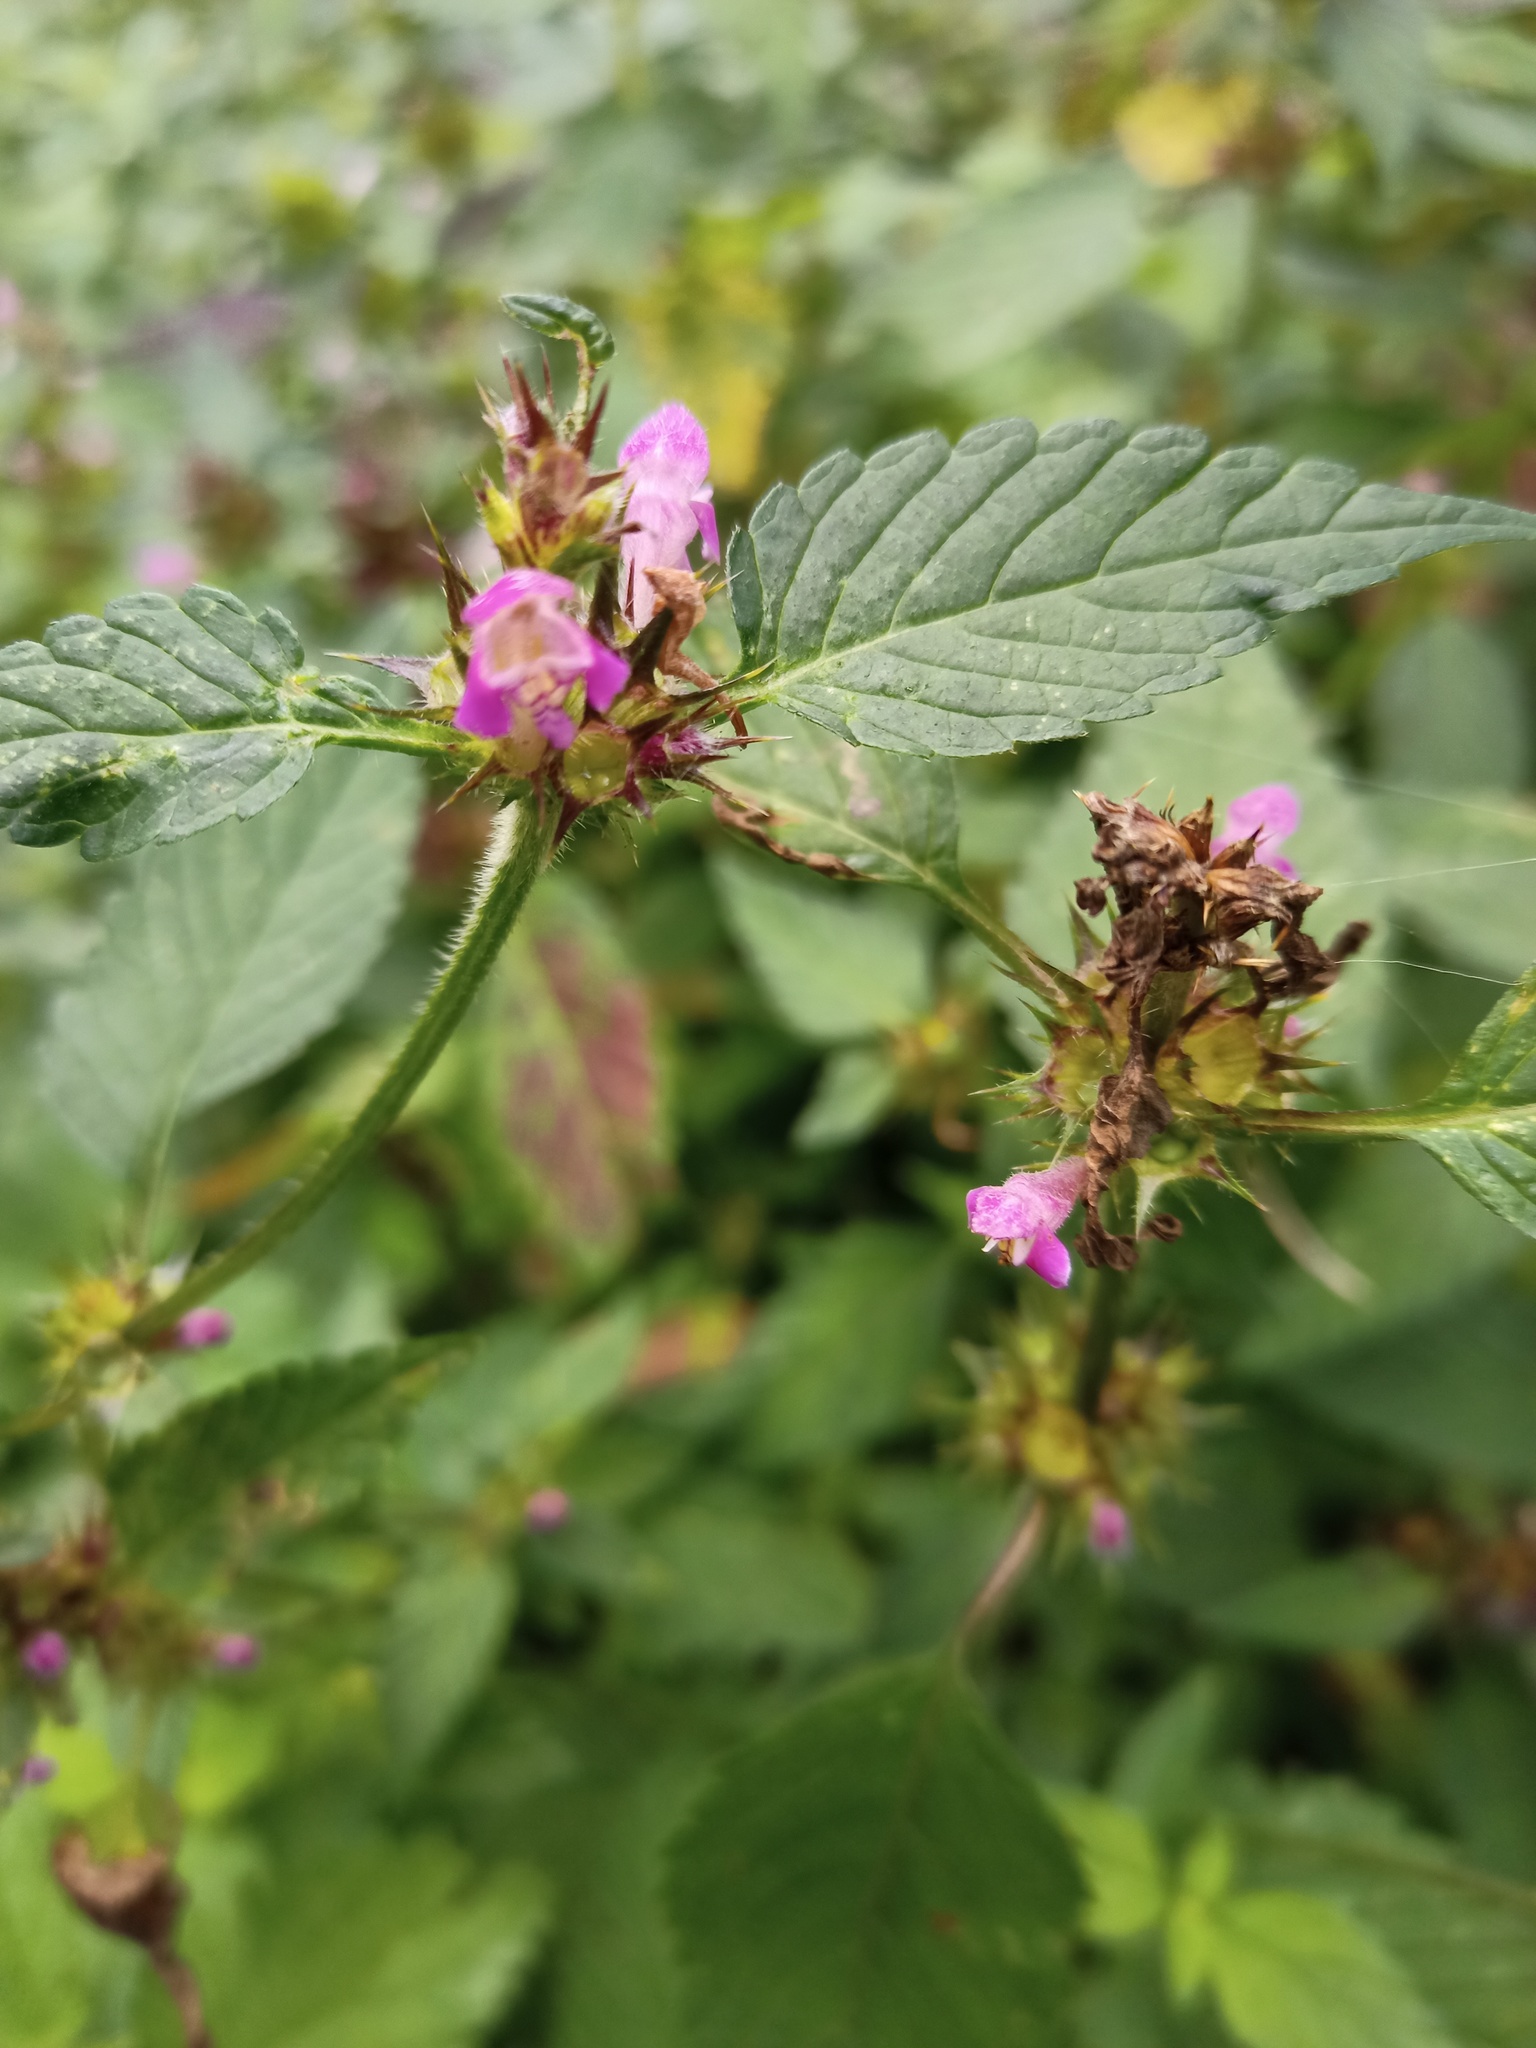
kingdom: Plantae
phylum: Tracheophyta
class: Magnoliopsida
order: Lamiales
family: Lamiaceae
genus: Galeopsis
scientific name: Galeopsis tetrahit
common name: Common hemp-nettle
